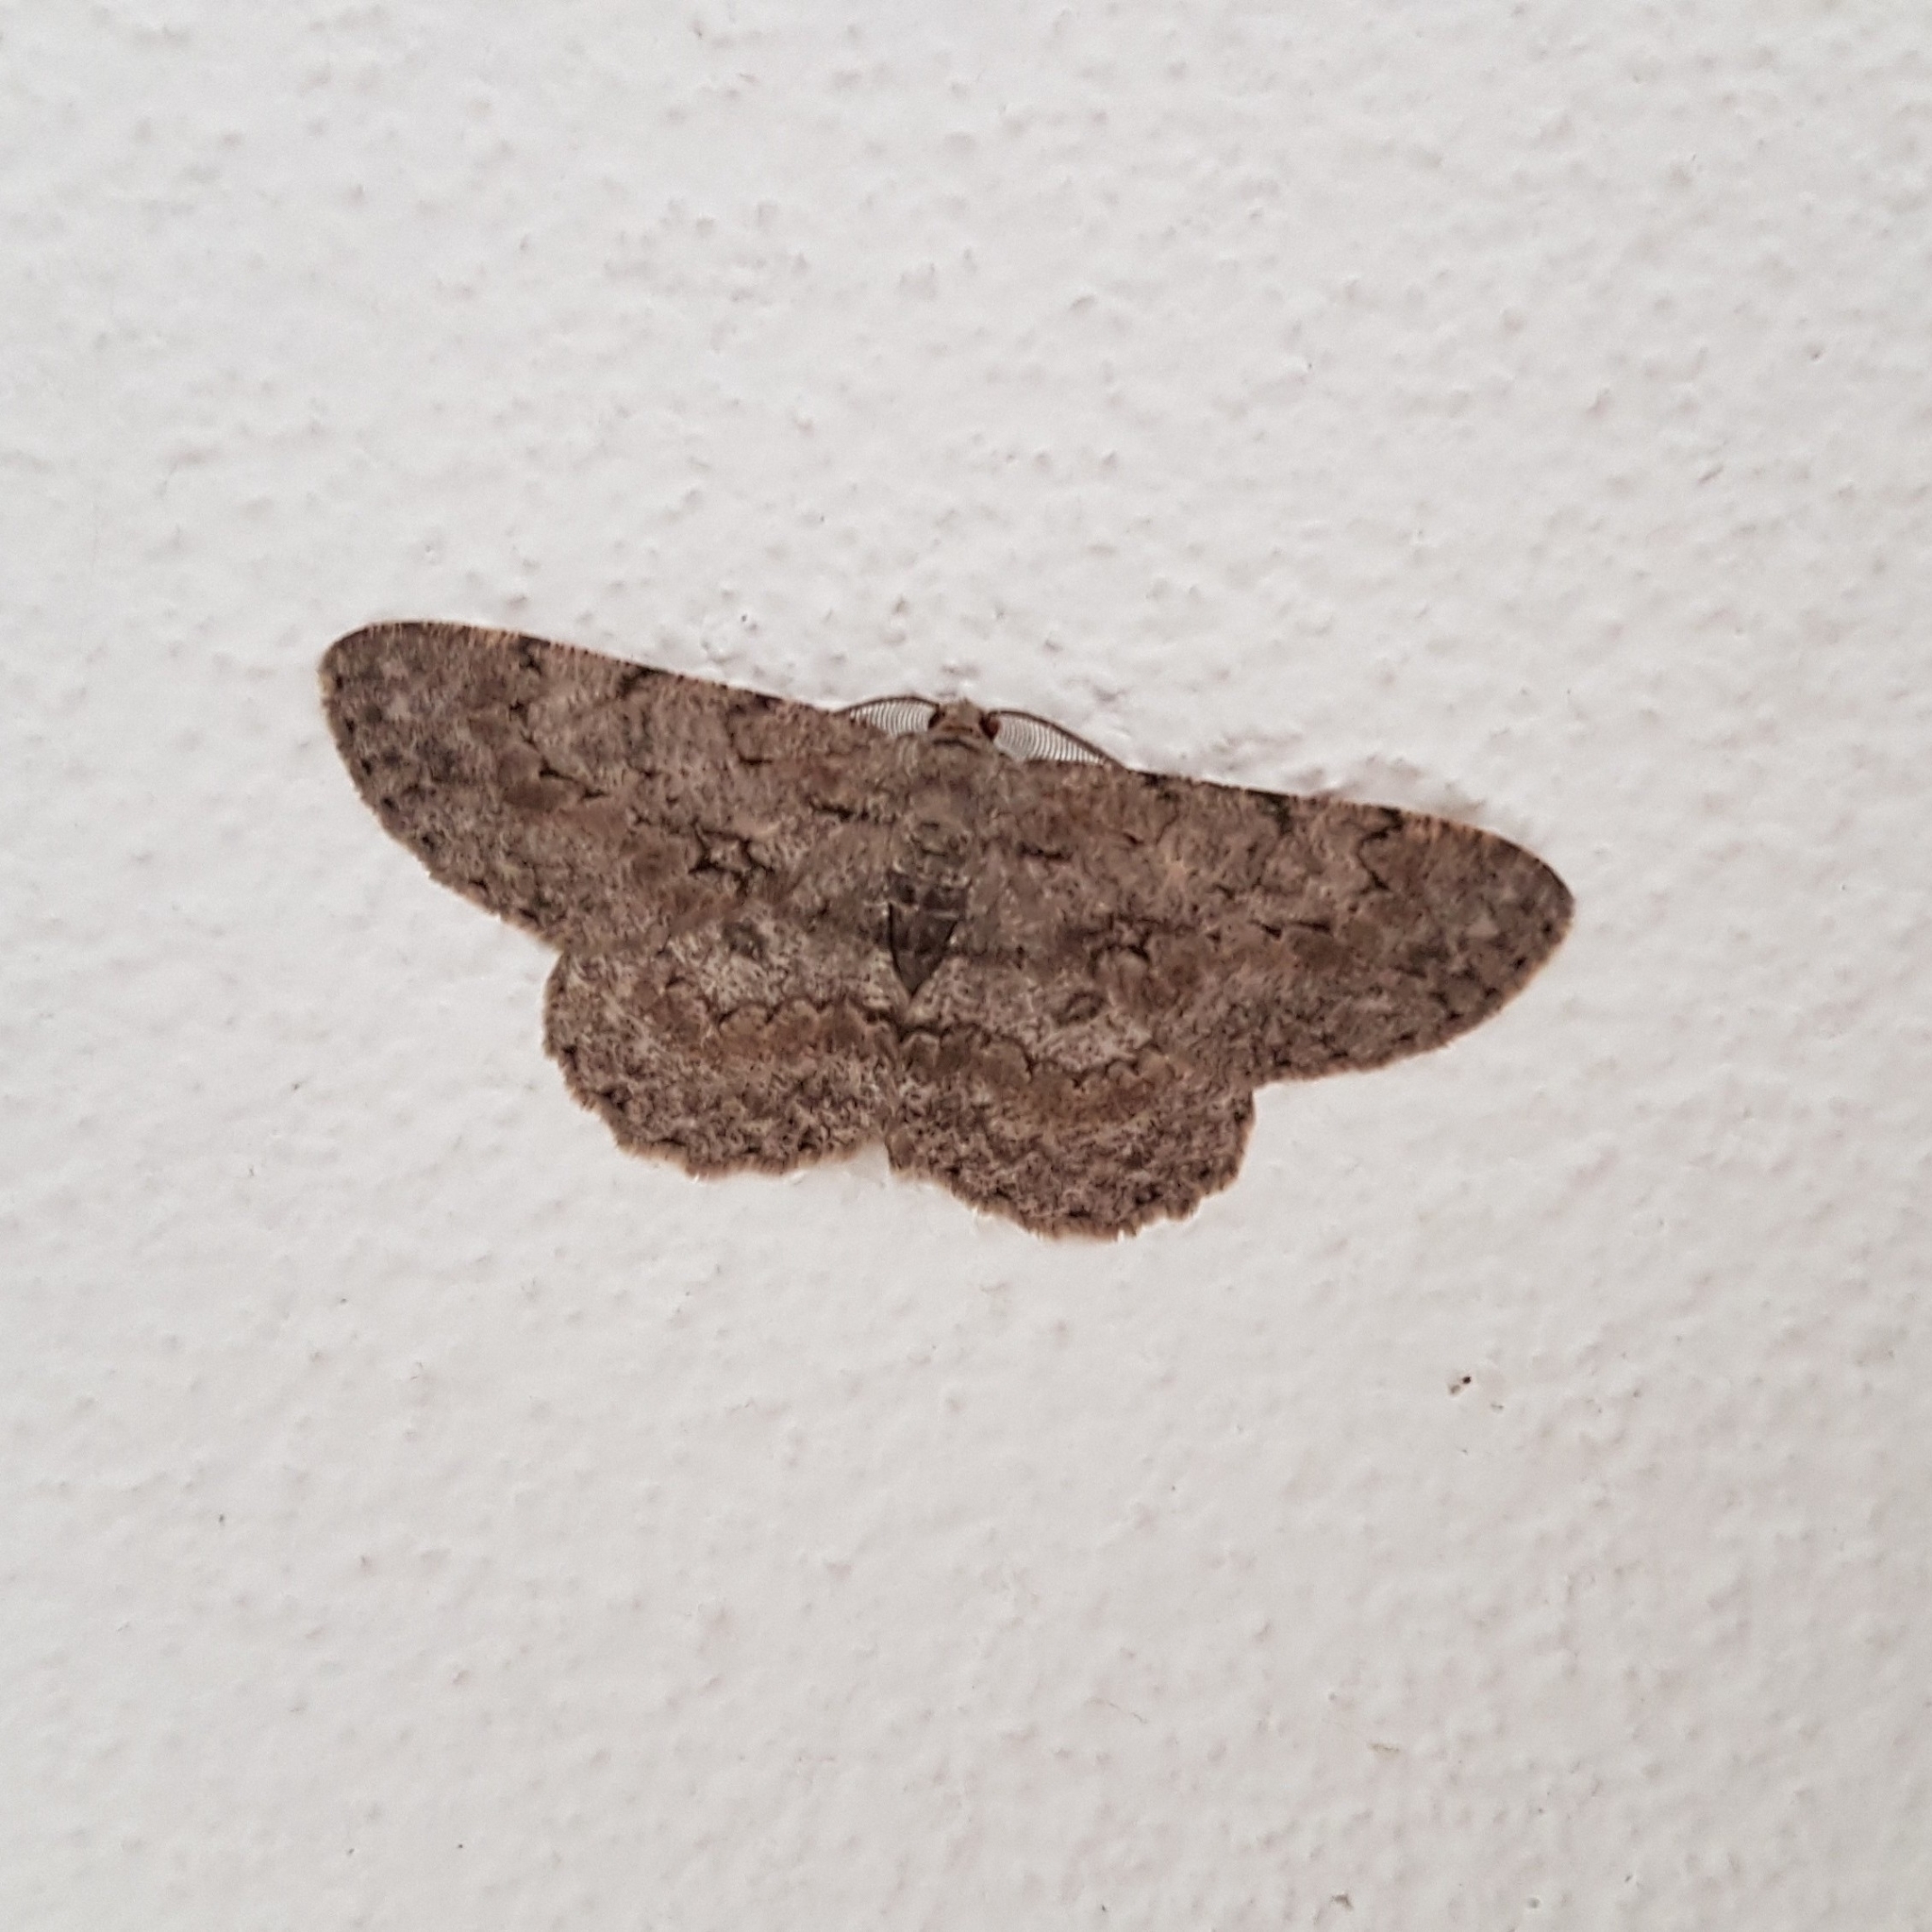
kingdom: Animalia
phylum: Arthropoda
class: Insecta
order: Lepidoptera
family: Geometridae
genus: Hypomecis
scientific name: Hypomecis punctinalis
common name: Pale oak beauty
